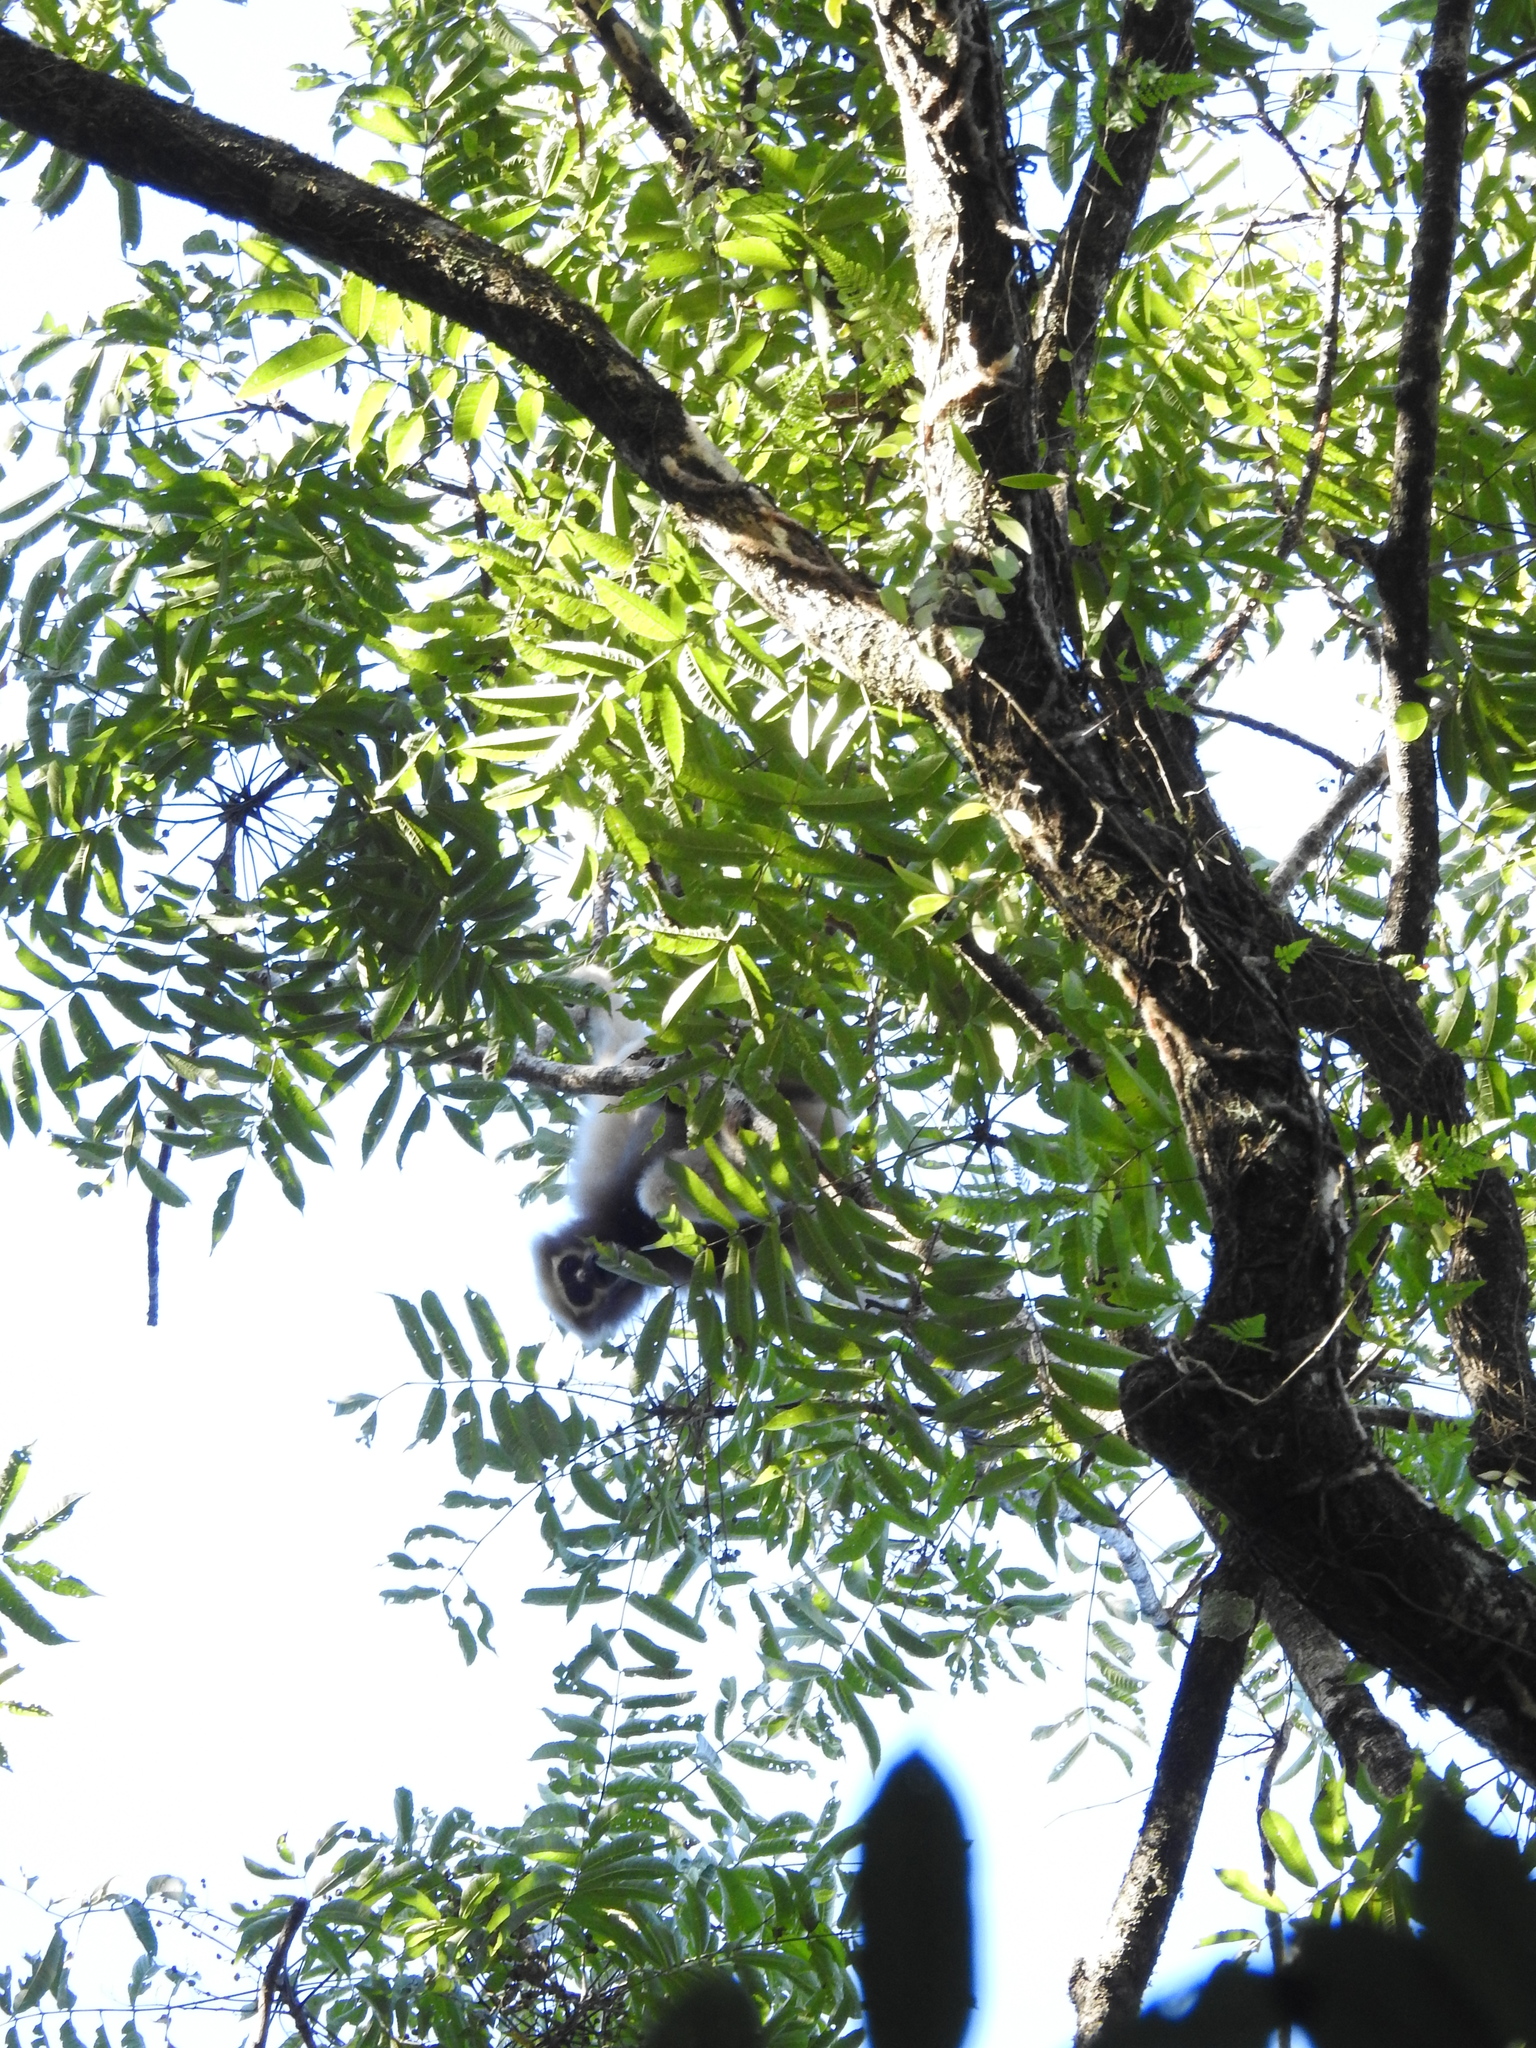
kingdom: Animalia
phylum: Chordata
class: Mammalia
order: Primates
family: Hylobatidae
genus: Hoolock
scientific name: Hoolock hoolock
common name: Western hoolock gibbon
